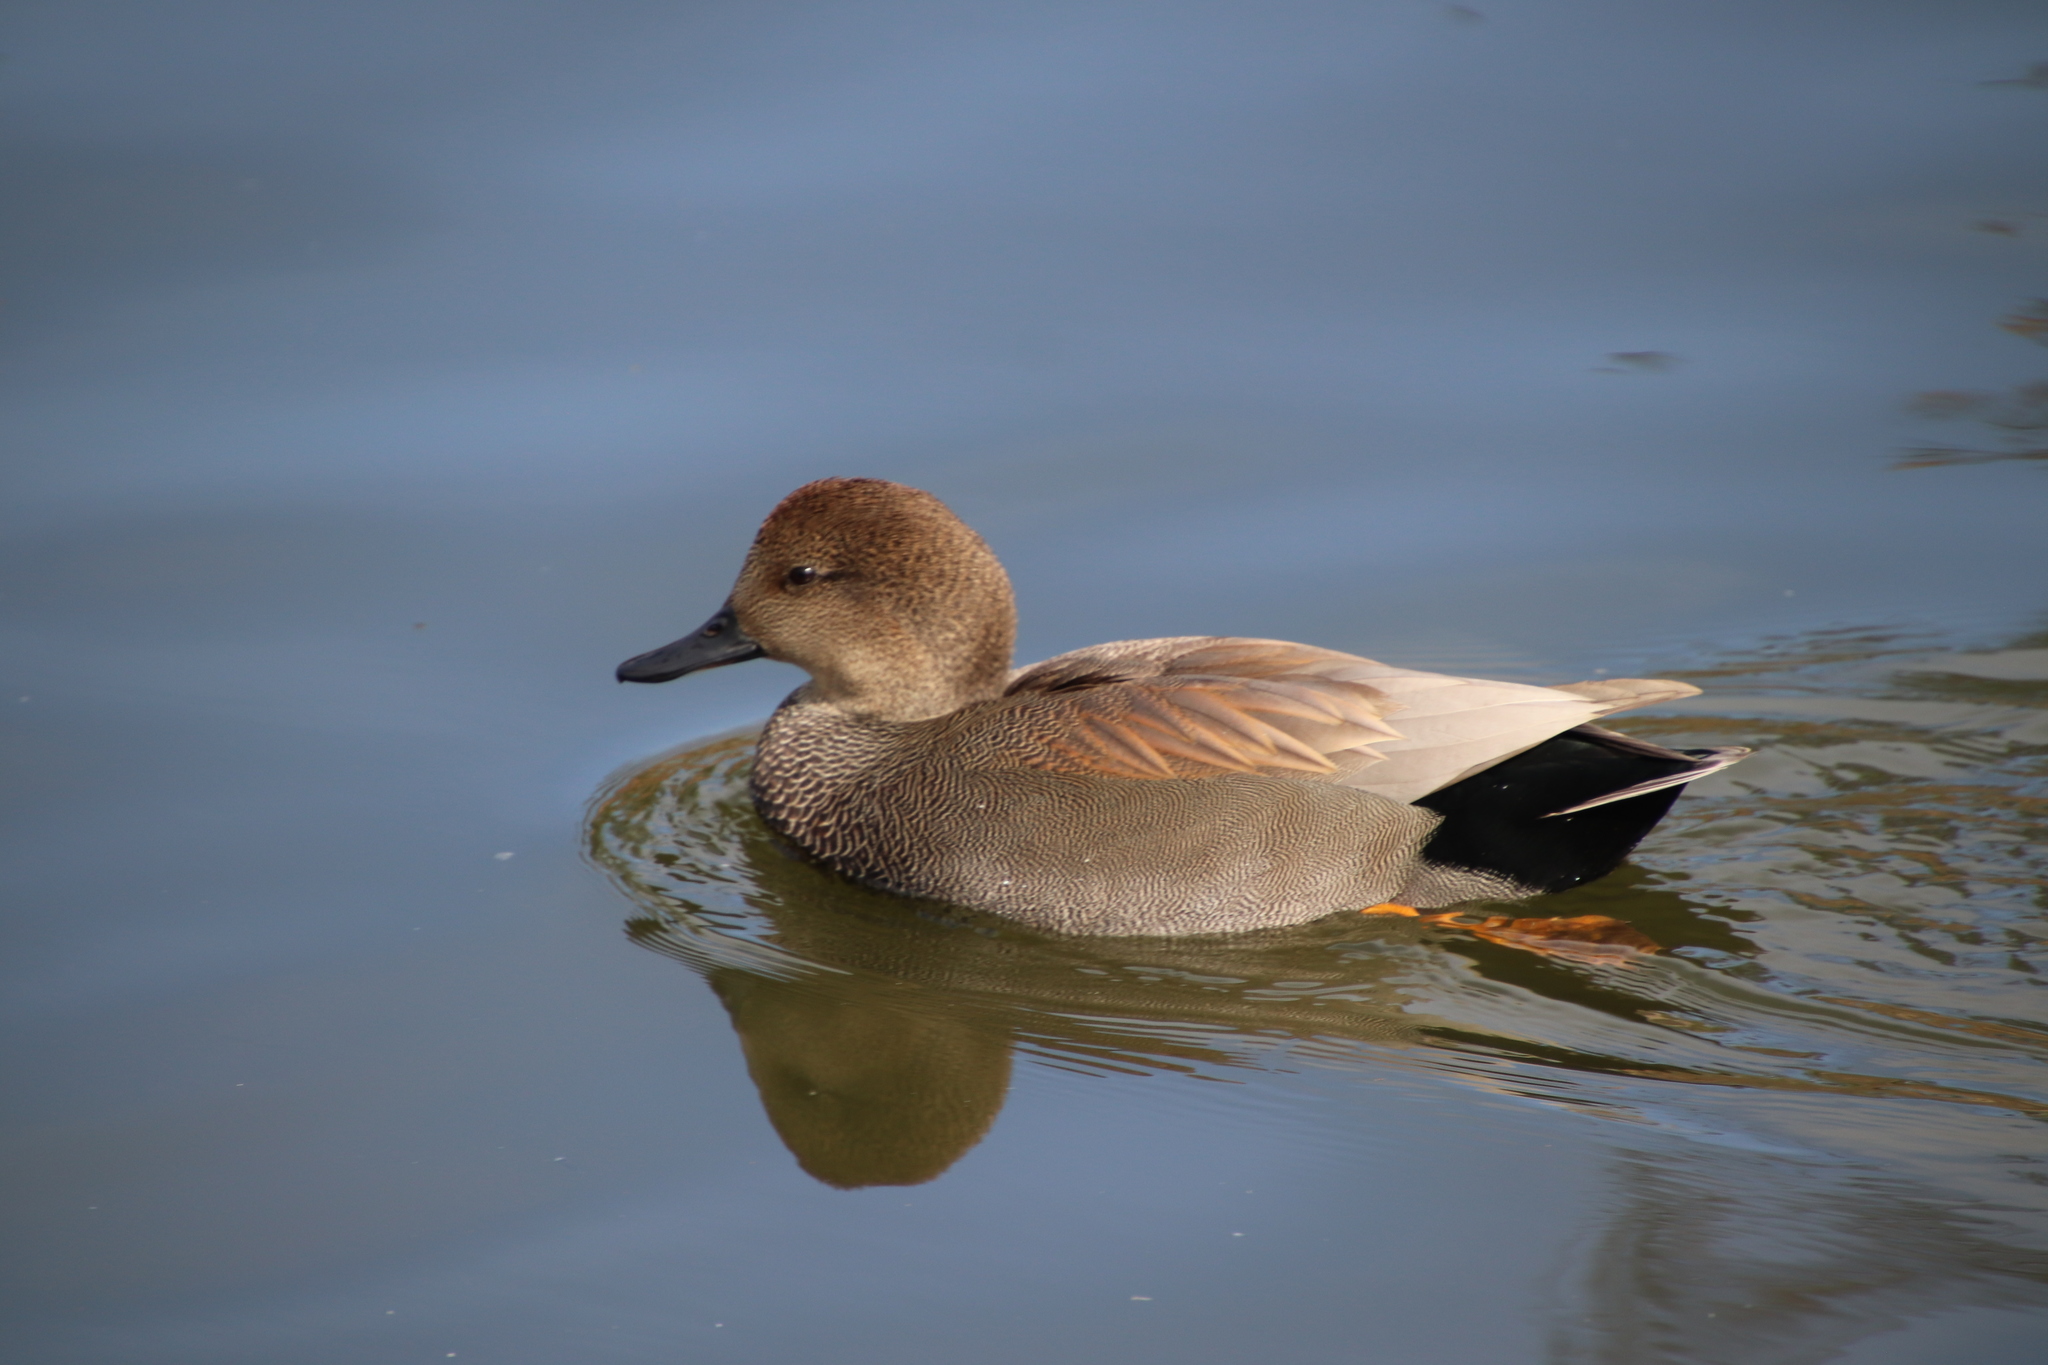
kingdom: Animalia
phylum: Chordata
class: Aves
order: Anseriformes
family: Anatidae
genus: Mareca
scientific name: Mareca strepera
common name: Gadwall
